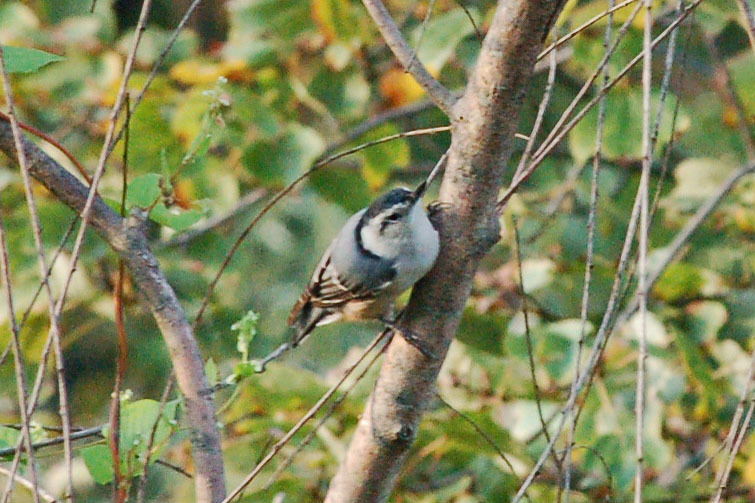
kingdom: Animalia
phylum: Chordata
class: Aves
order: Passeriformes
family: Sittidae
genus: Sitta
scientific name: Sitta carolinensis
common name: White-breasted nuthatch
